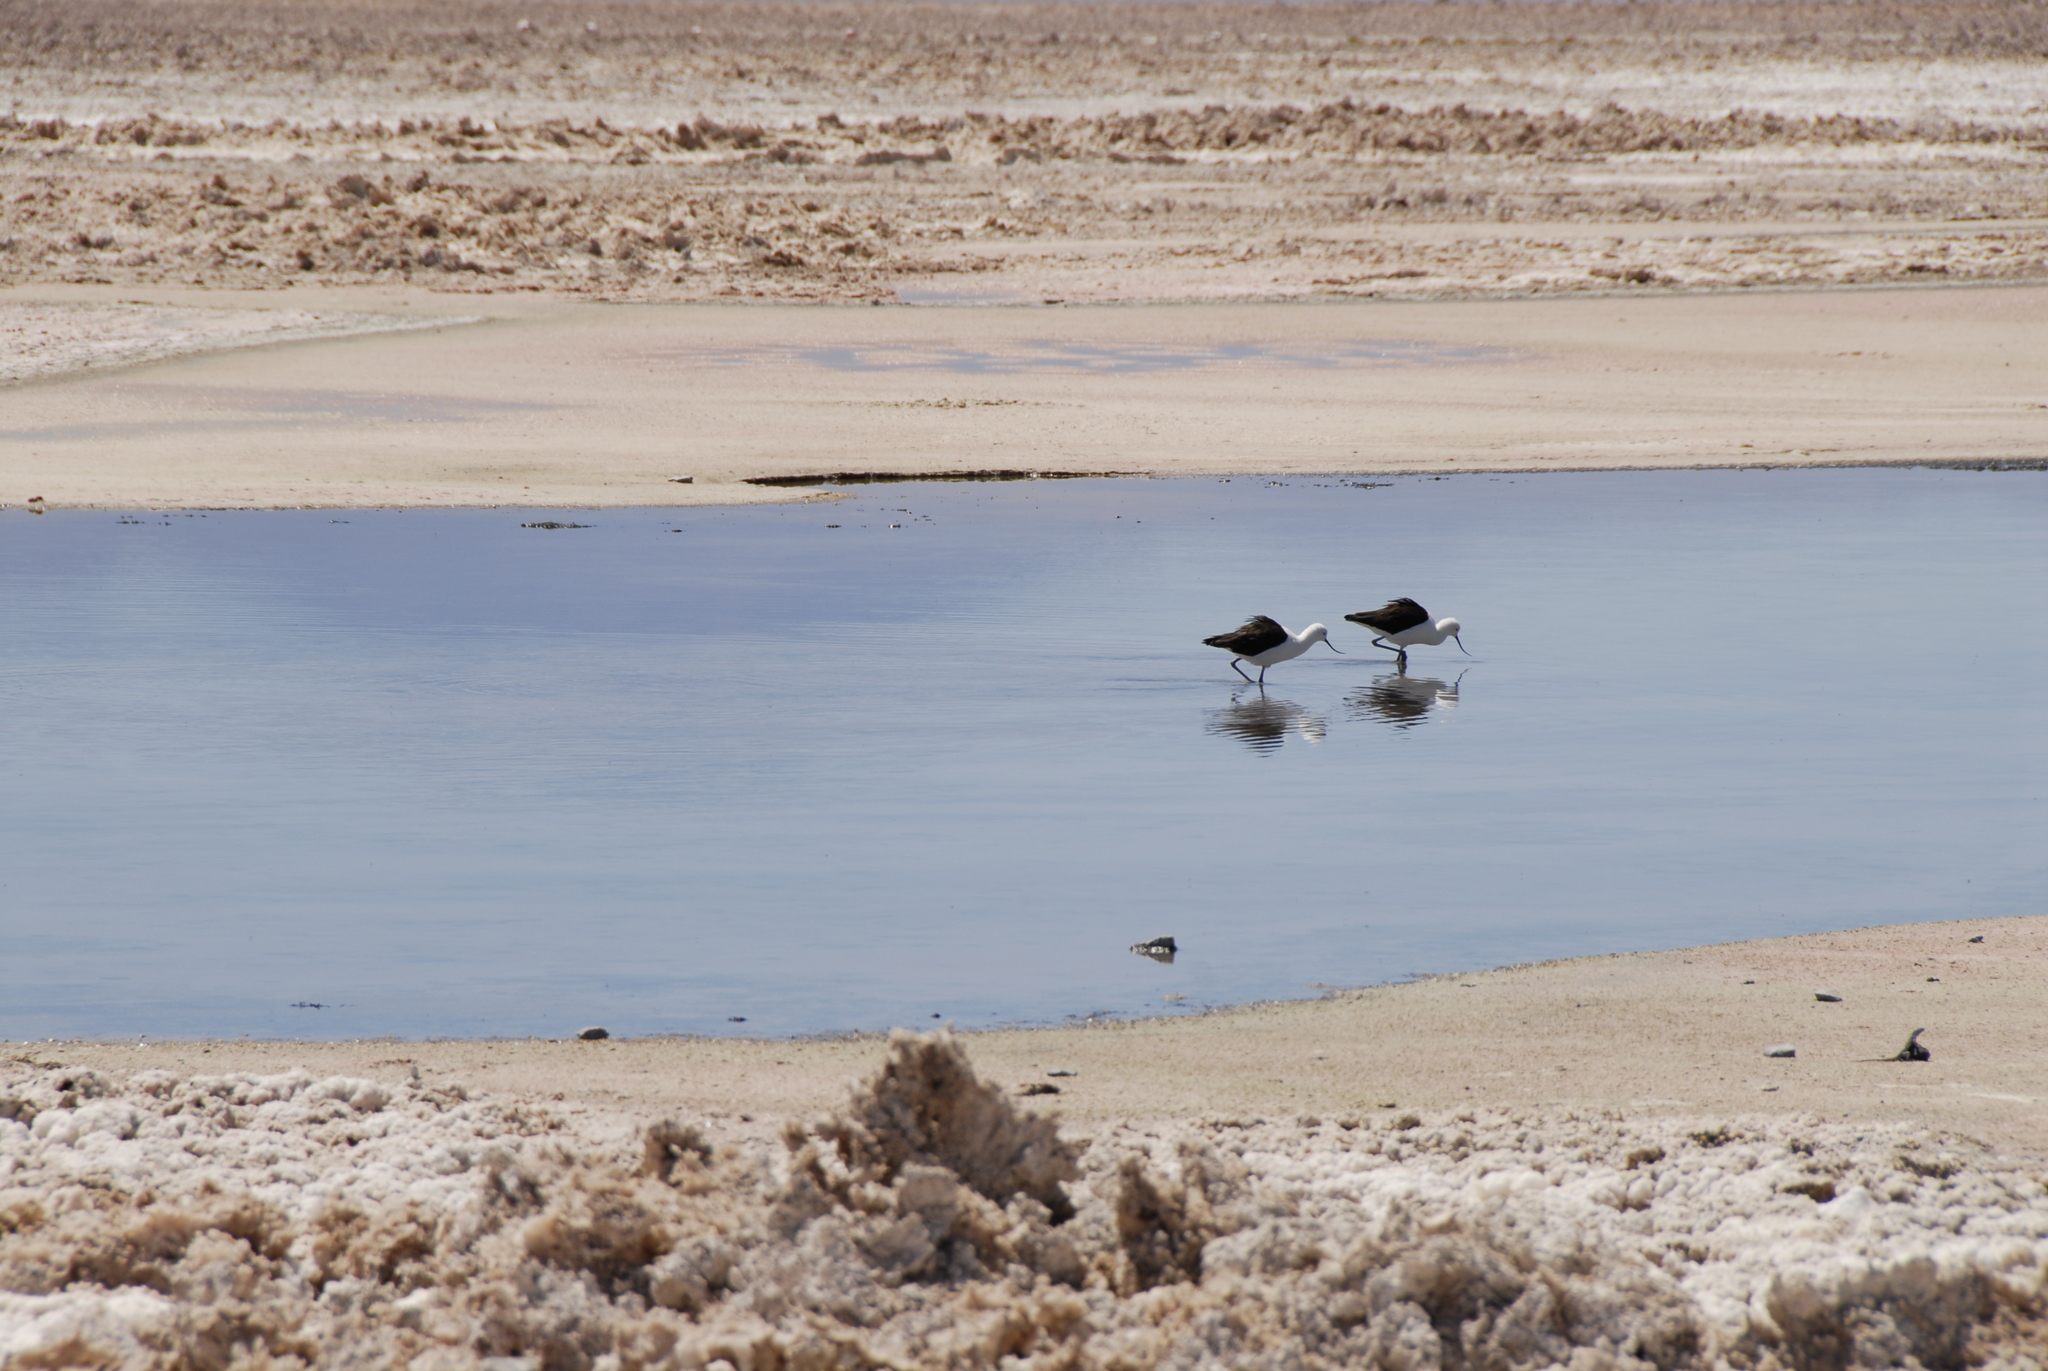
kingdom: Animalia
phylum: Chordata
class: Aves
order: Charadriiformes
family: Recurvirostridae
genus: Recurvirostra
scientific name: Recurvirostra andina
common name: Andean avocet
